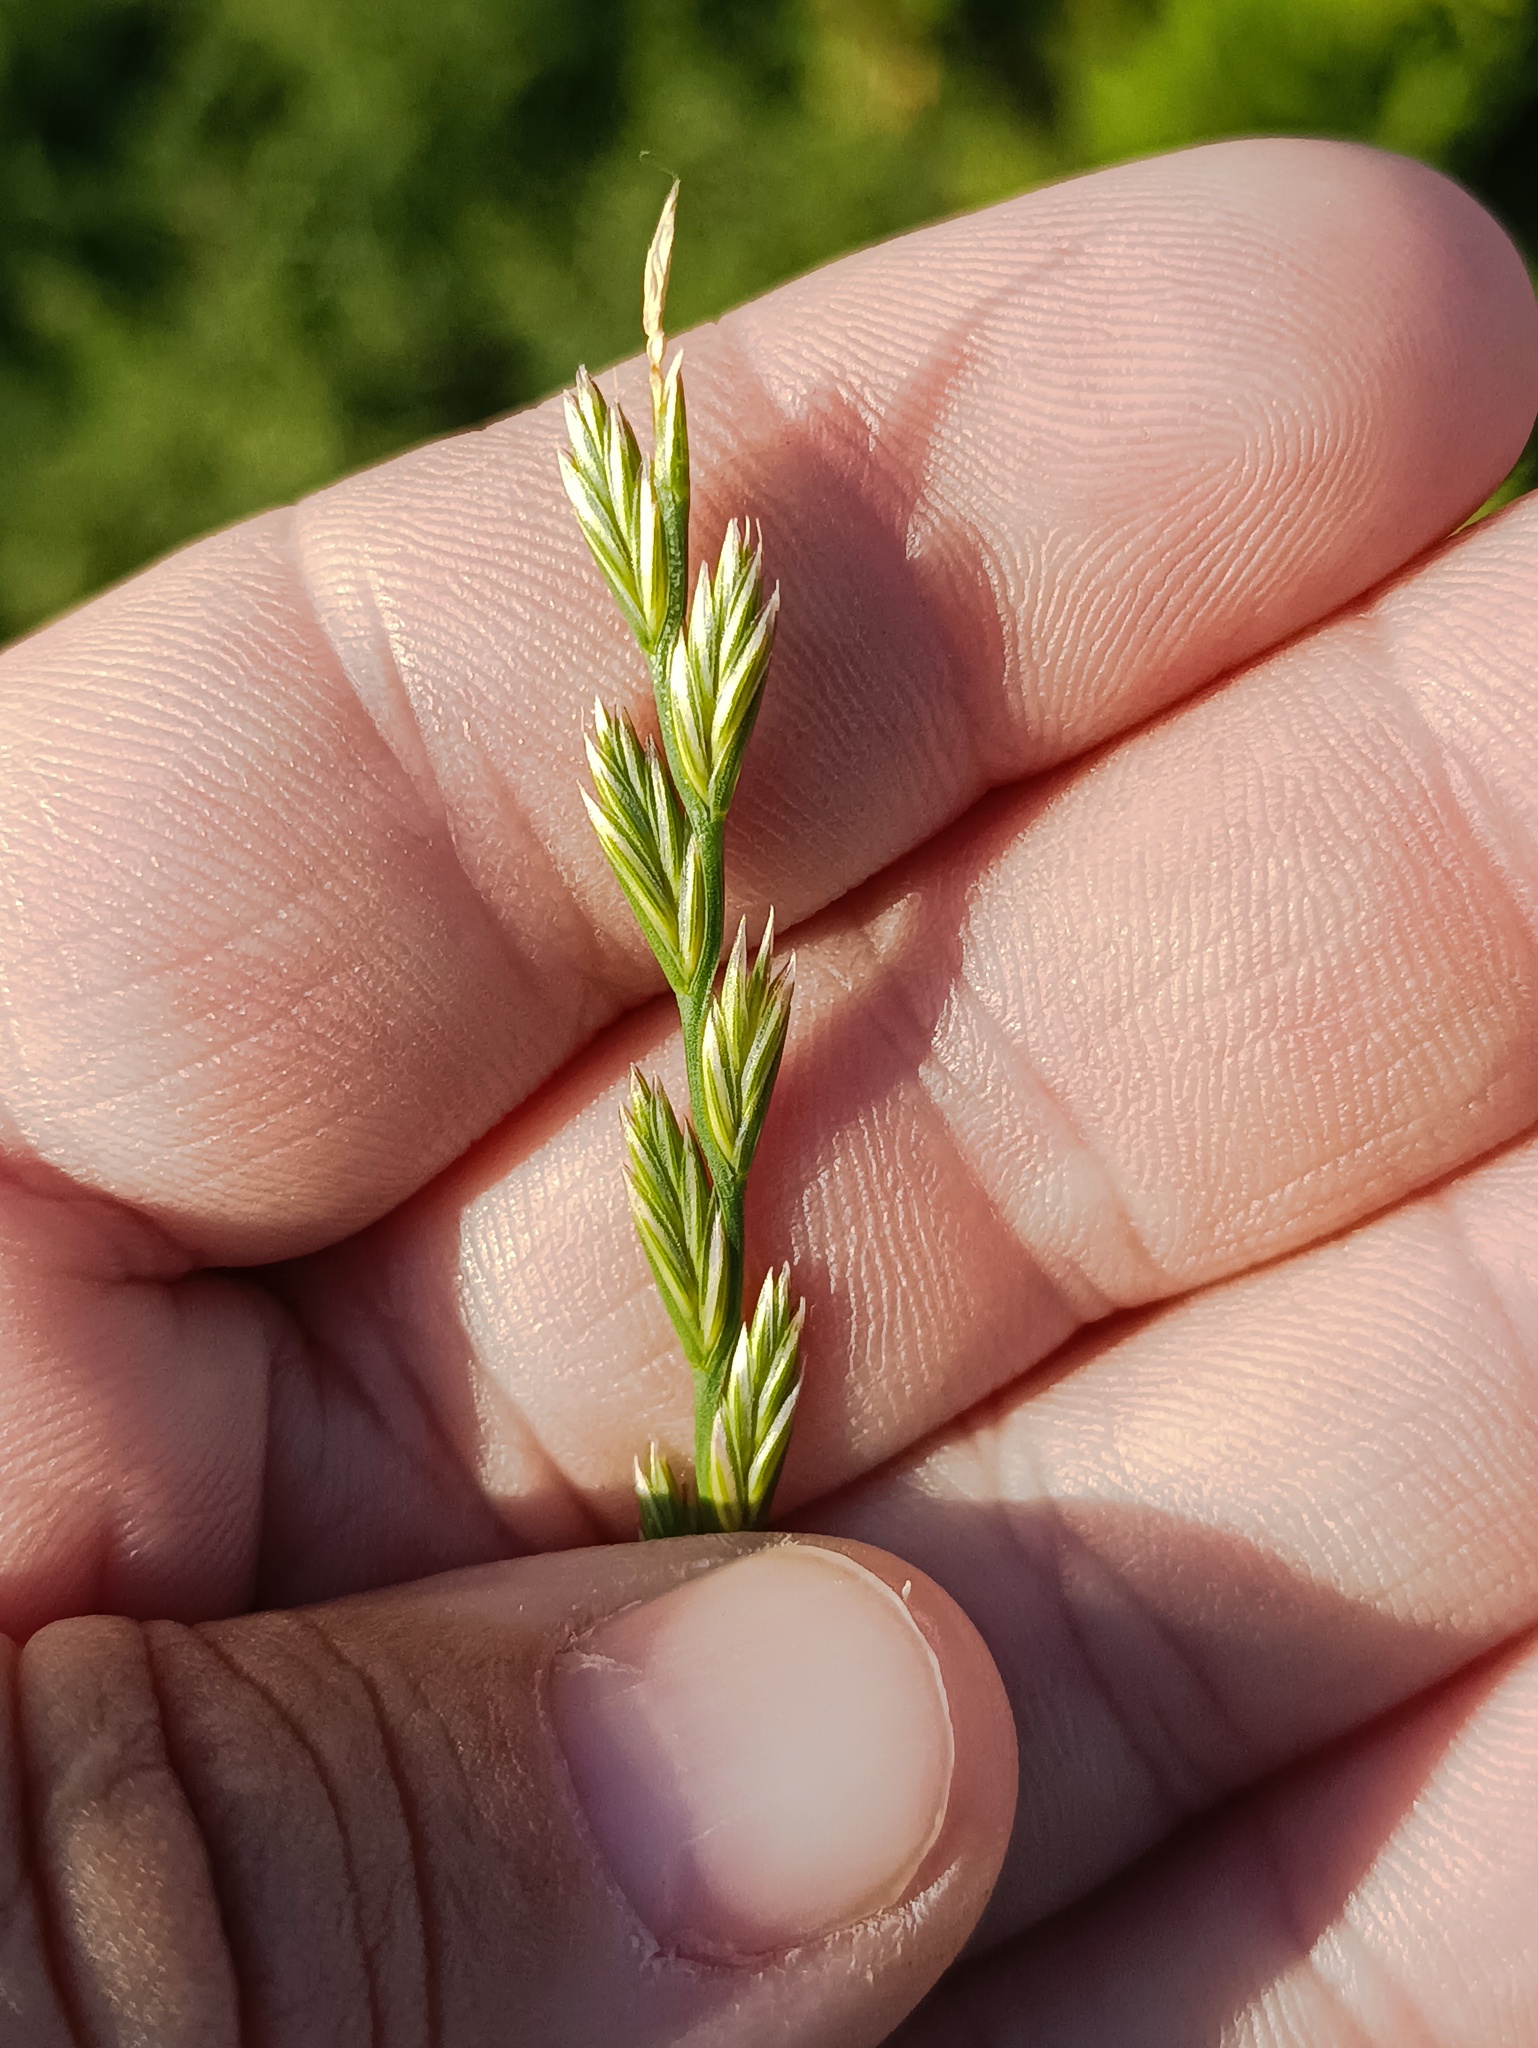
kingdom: Plantae
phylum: Tracheophyta
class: Liliopsida
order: Poales
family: Poaceae
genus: Lolium
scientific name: Lolium perenne
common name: Perennial ryegrass
